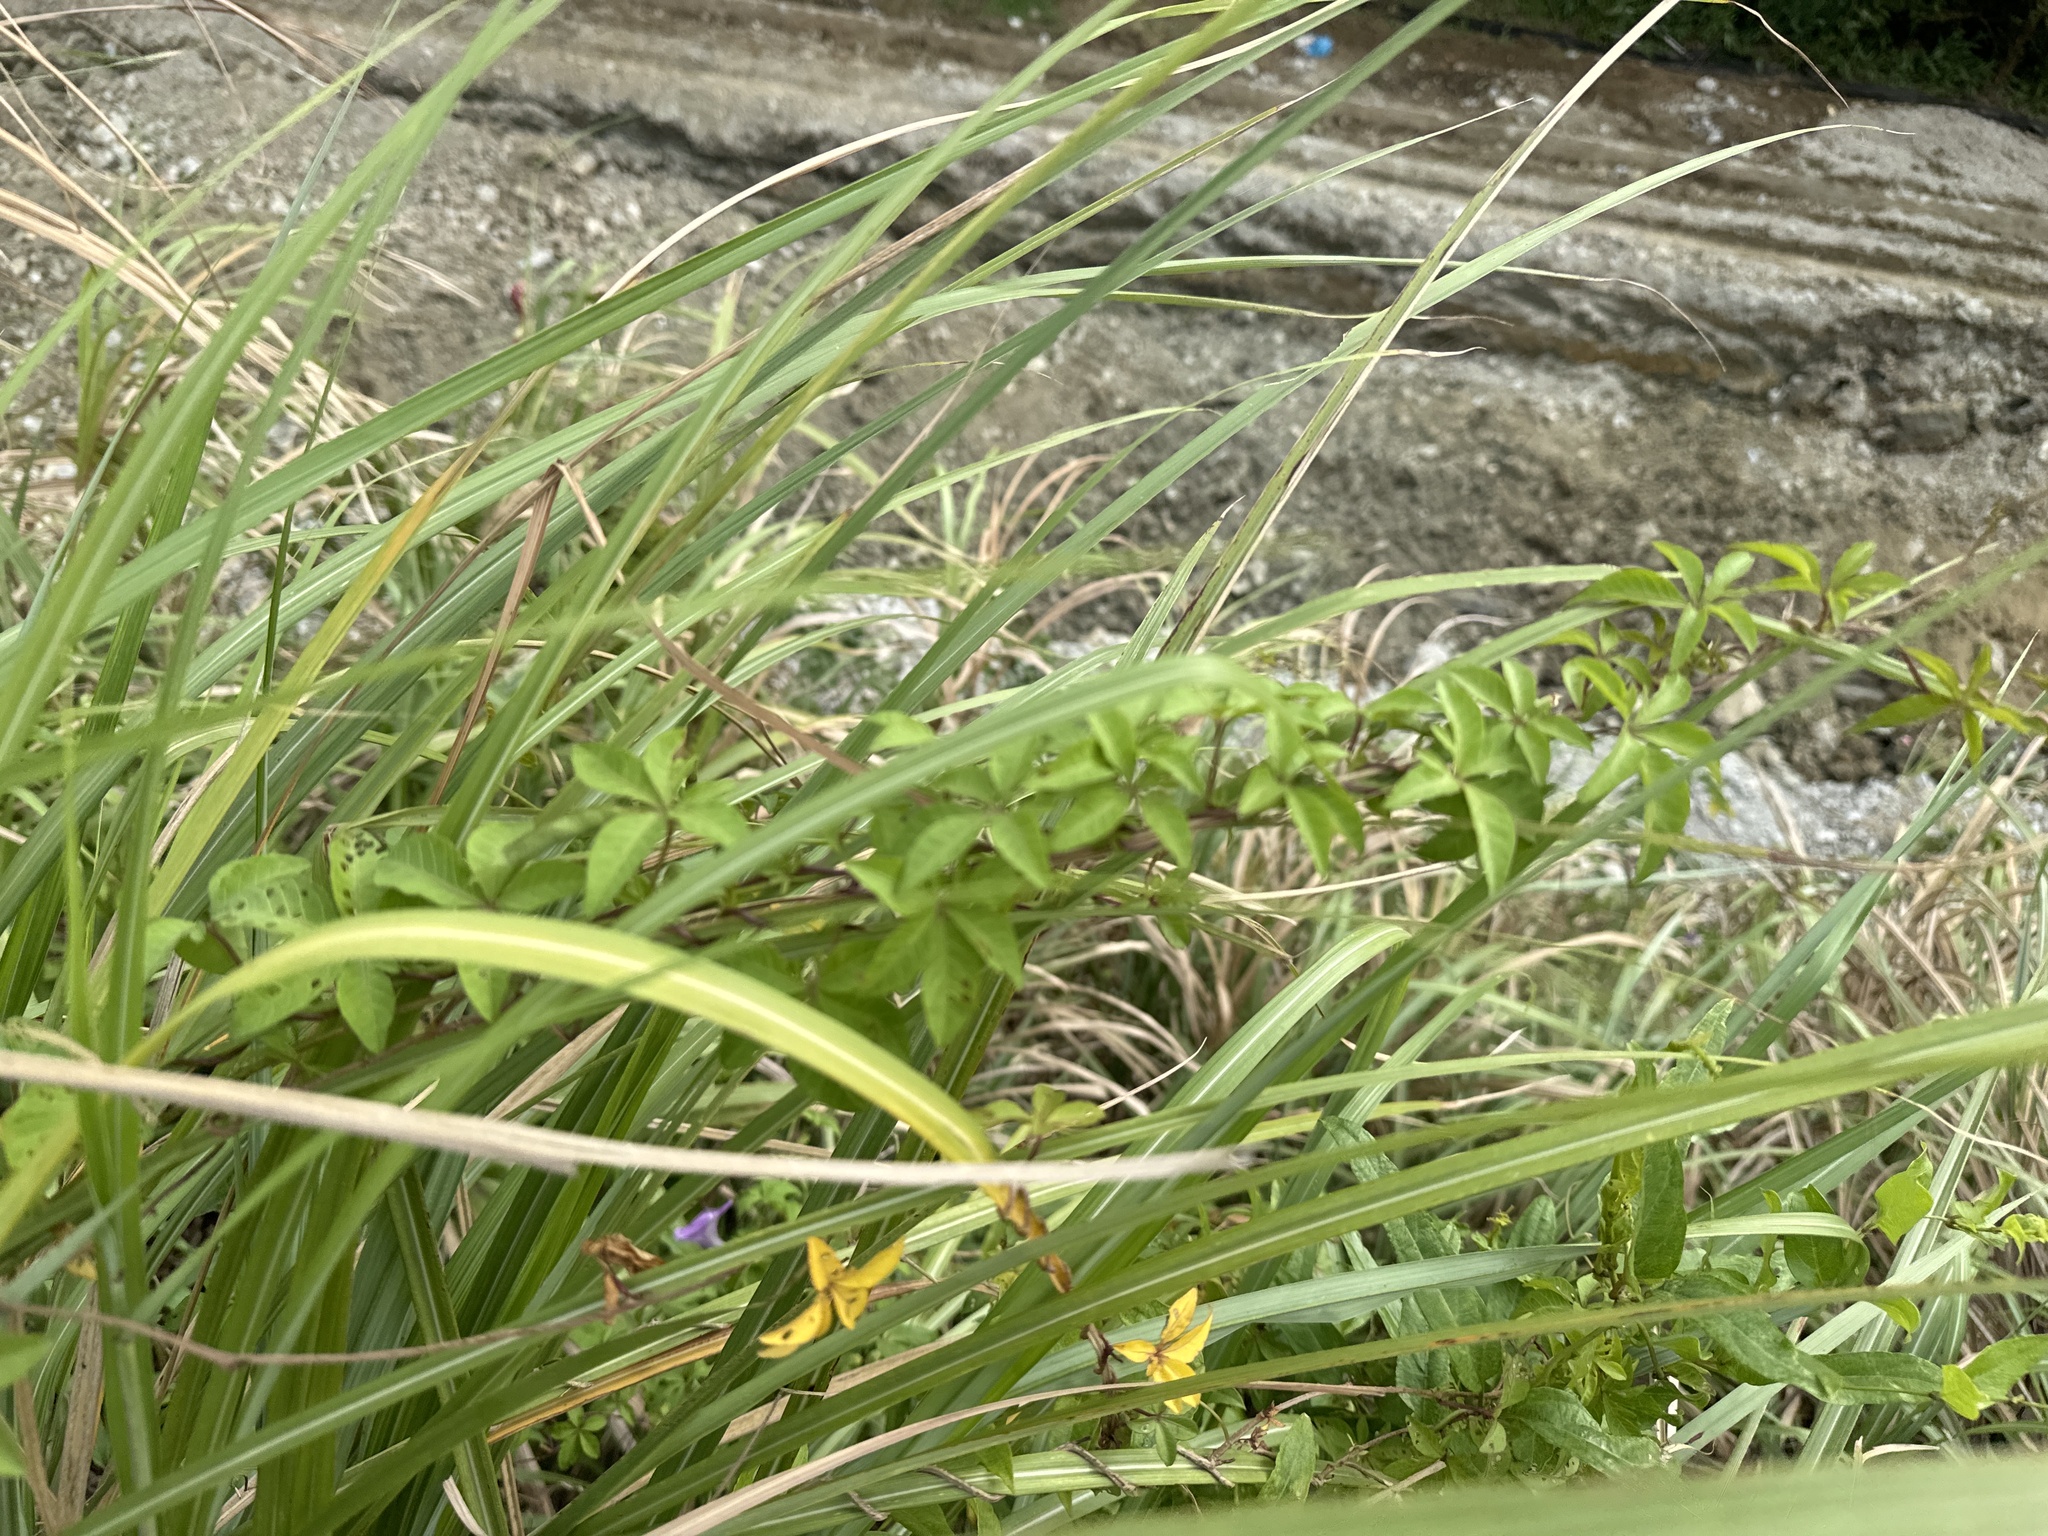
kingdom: Plantae
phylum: Tracheophyta
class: Magnoliopsida
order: Solanales
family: Convolvulaceae
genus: Ipomoea
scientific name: Ipomoea cairica
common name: Mile a minute vine
